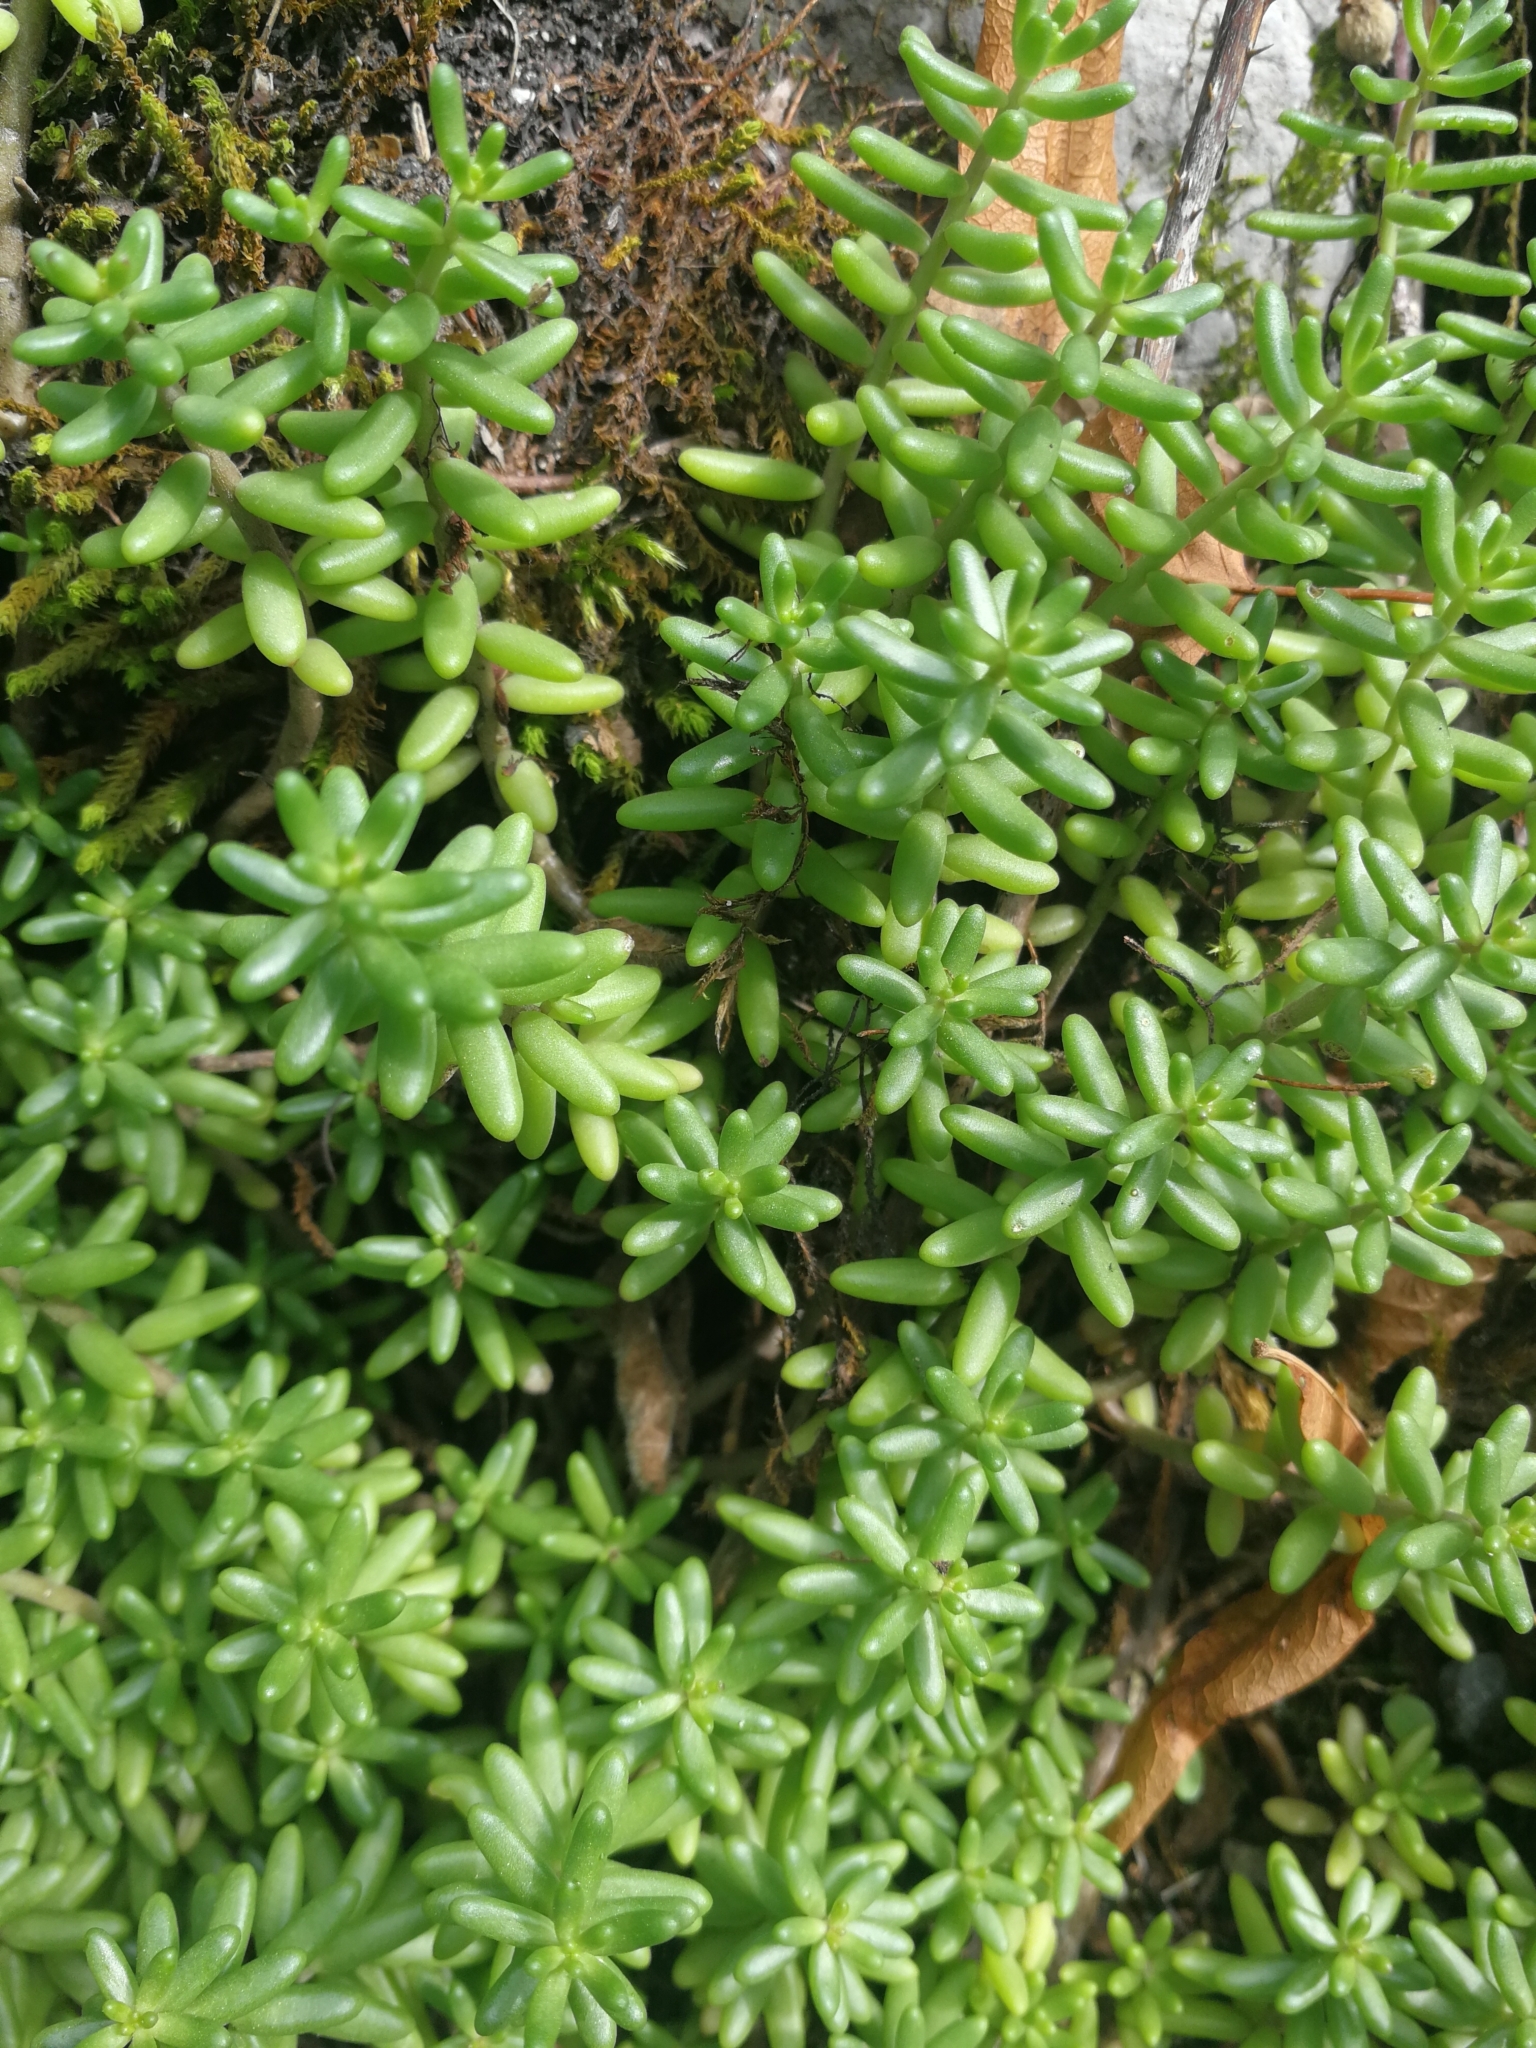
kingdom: Plantae
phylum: Tracheophyta
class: Magnoliopsida
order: Saxifragales
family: Crassulaceae
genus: Sedum
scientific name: Sedum album
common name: White stonecrop
